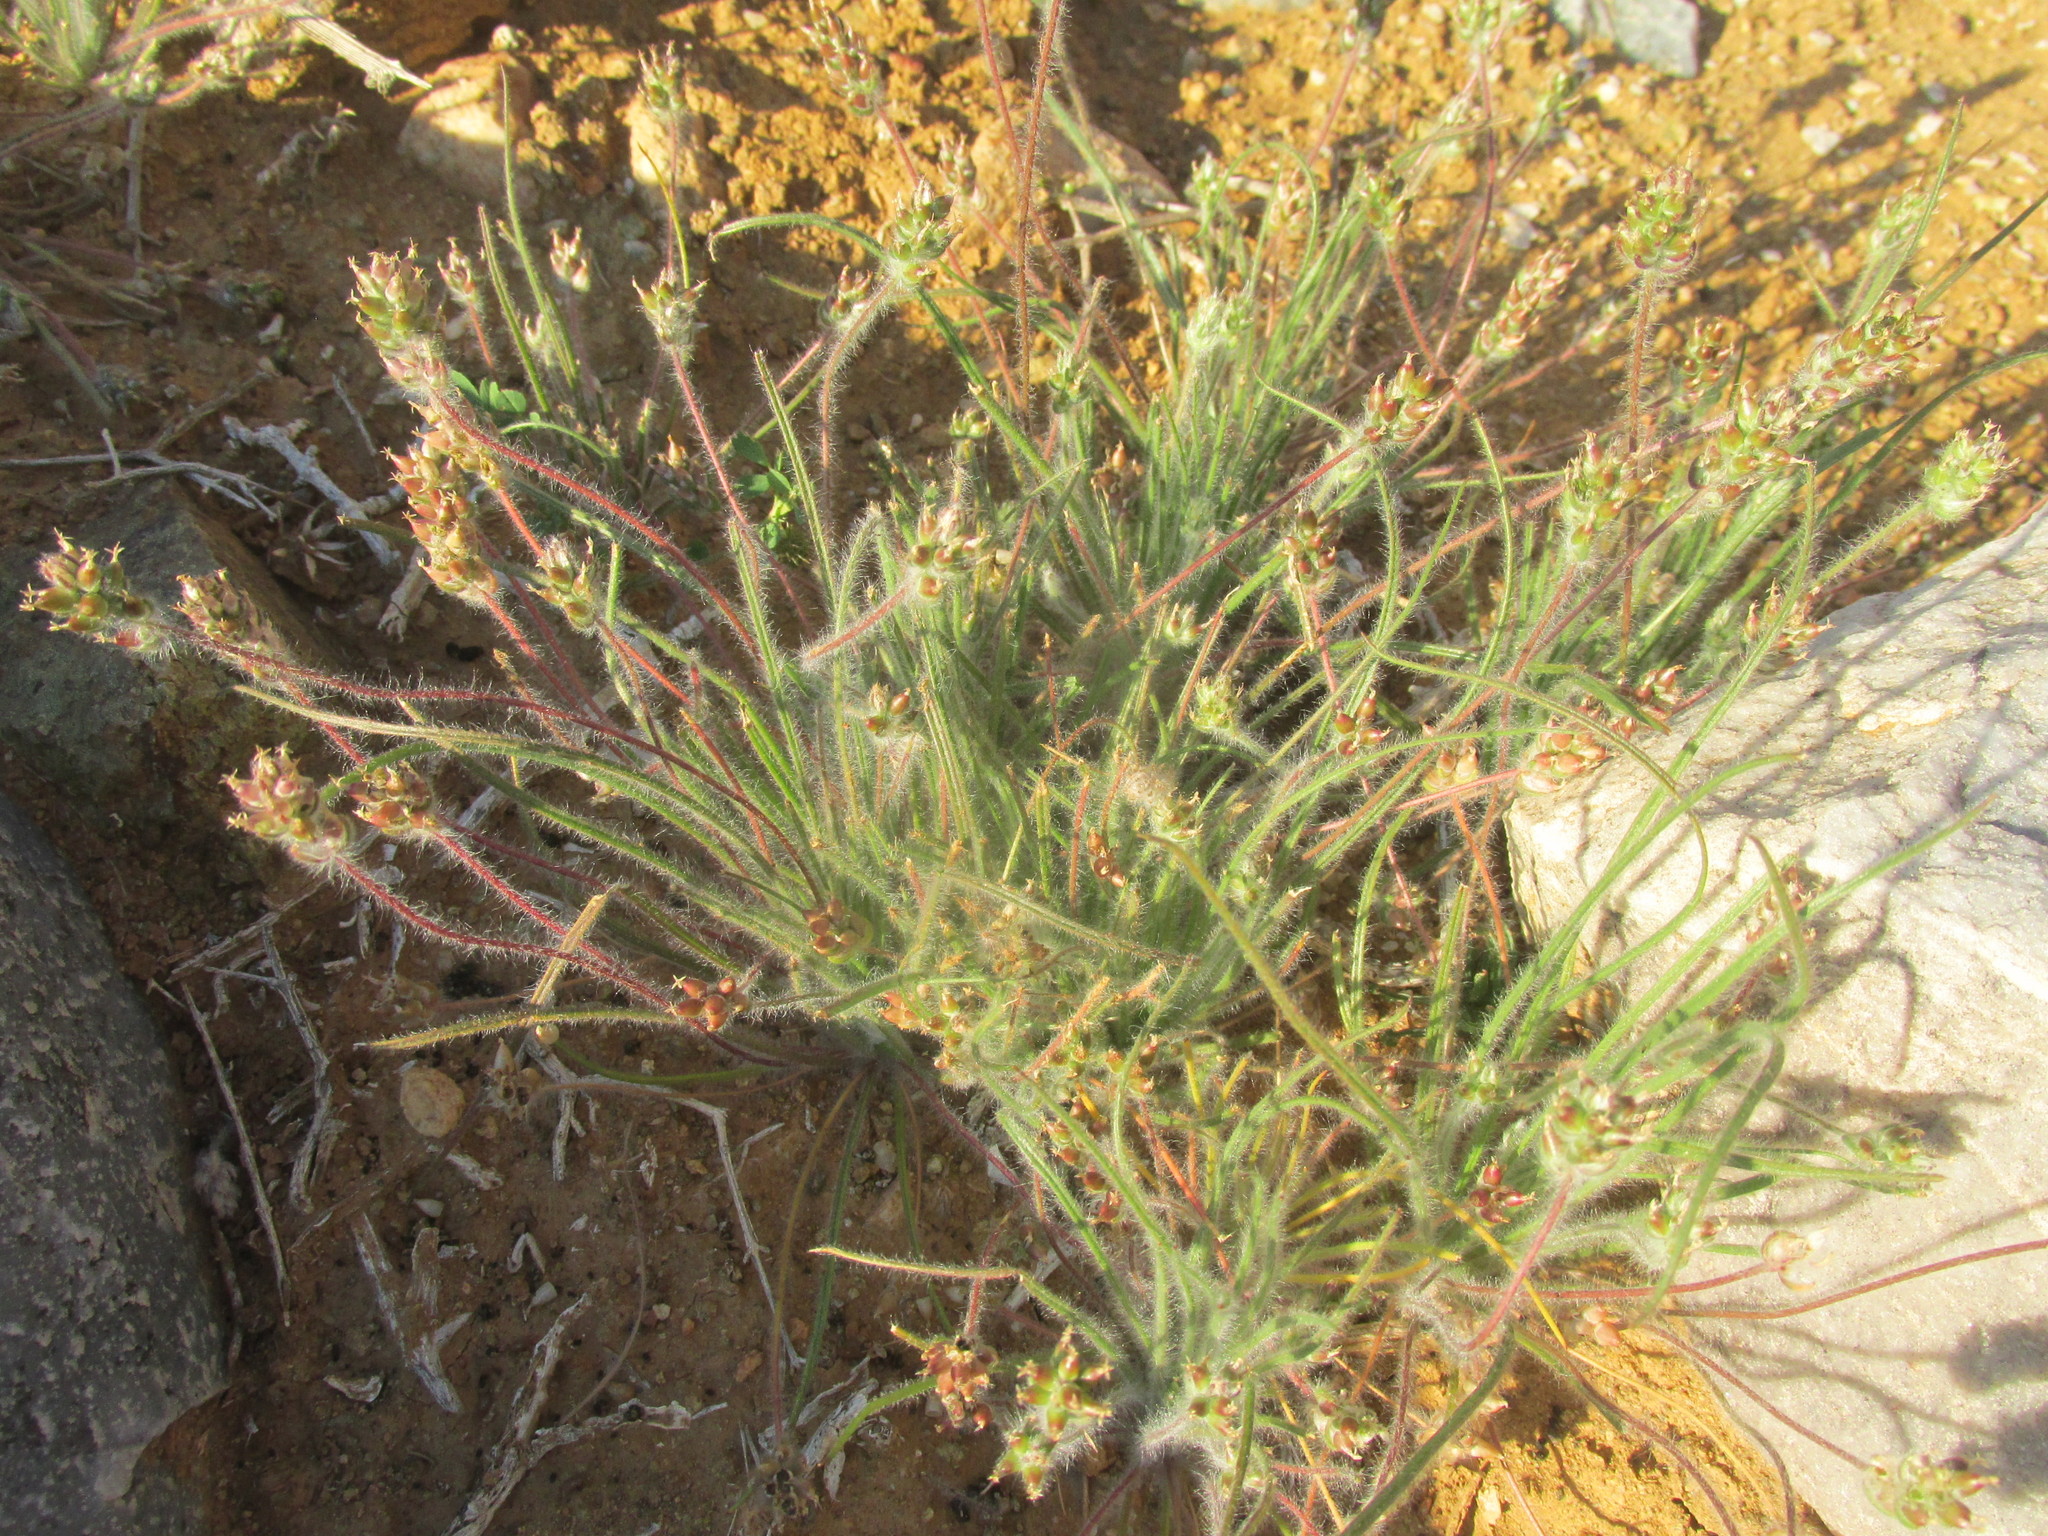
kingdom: Plantae
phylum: Tracheophyta
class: Magnoliopsida
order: Lamiales
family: Plantaginaceae
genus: Plantago
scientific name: Plantago cafra
